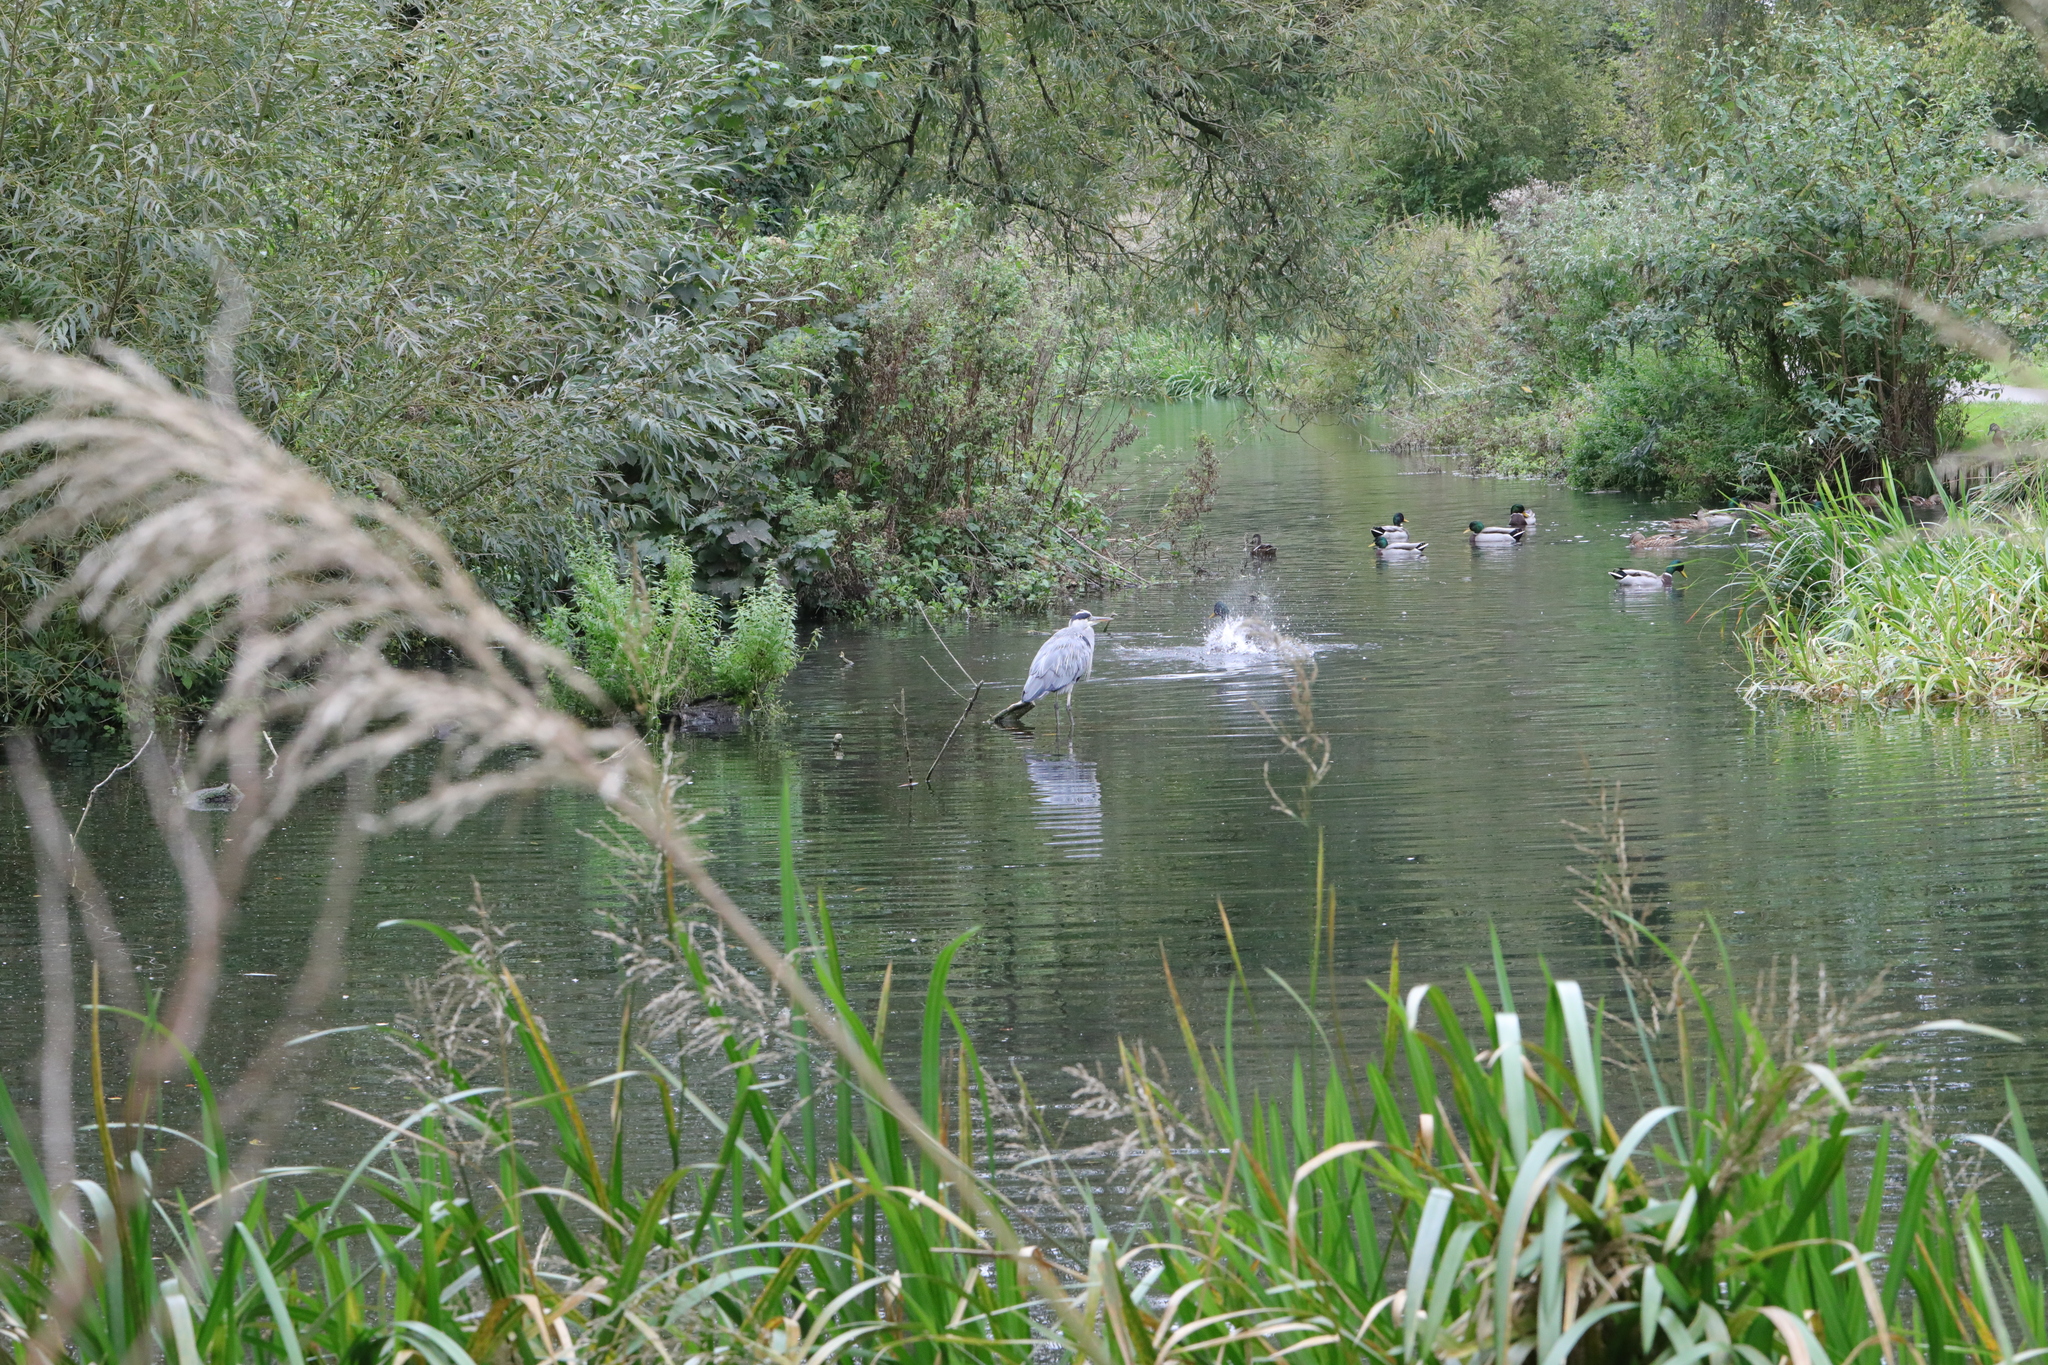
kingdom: Animalia
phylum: Chordata
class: Aves
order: Pelecaniformes
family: Ardeidae
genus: Ardea
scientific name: Ardea cinerea
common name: Grey heron
